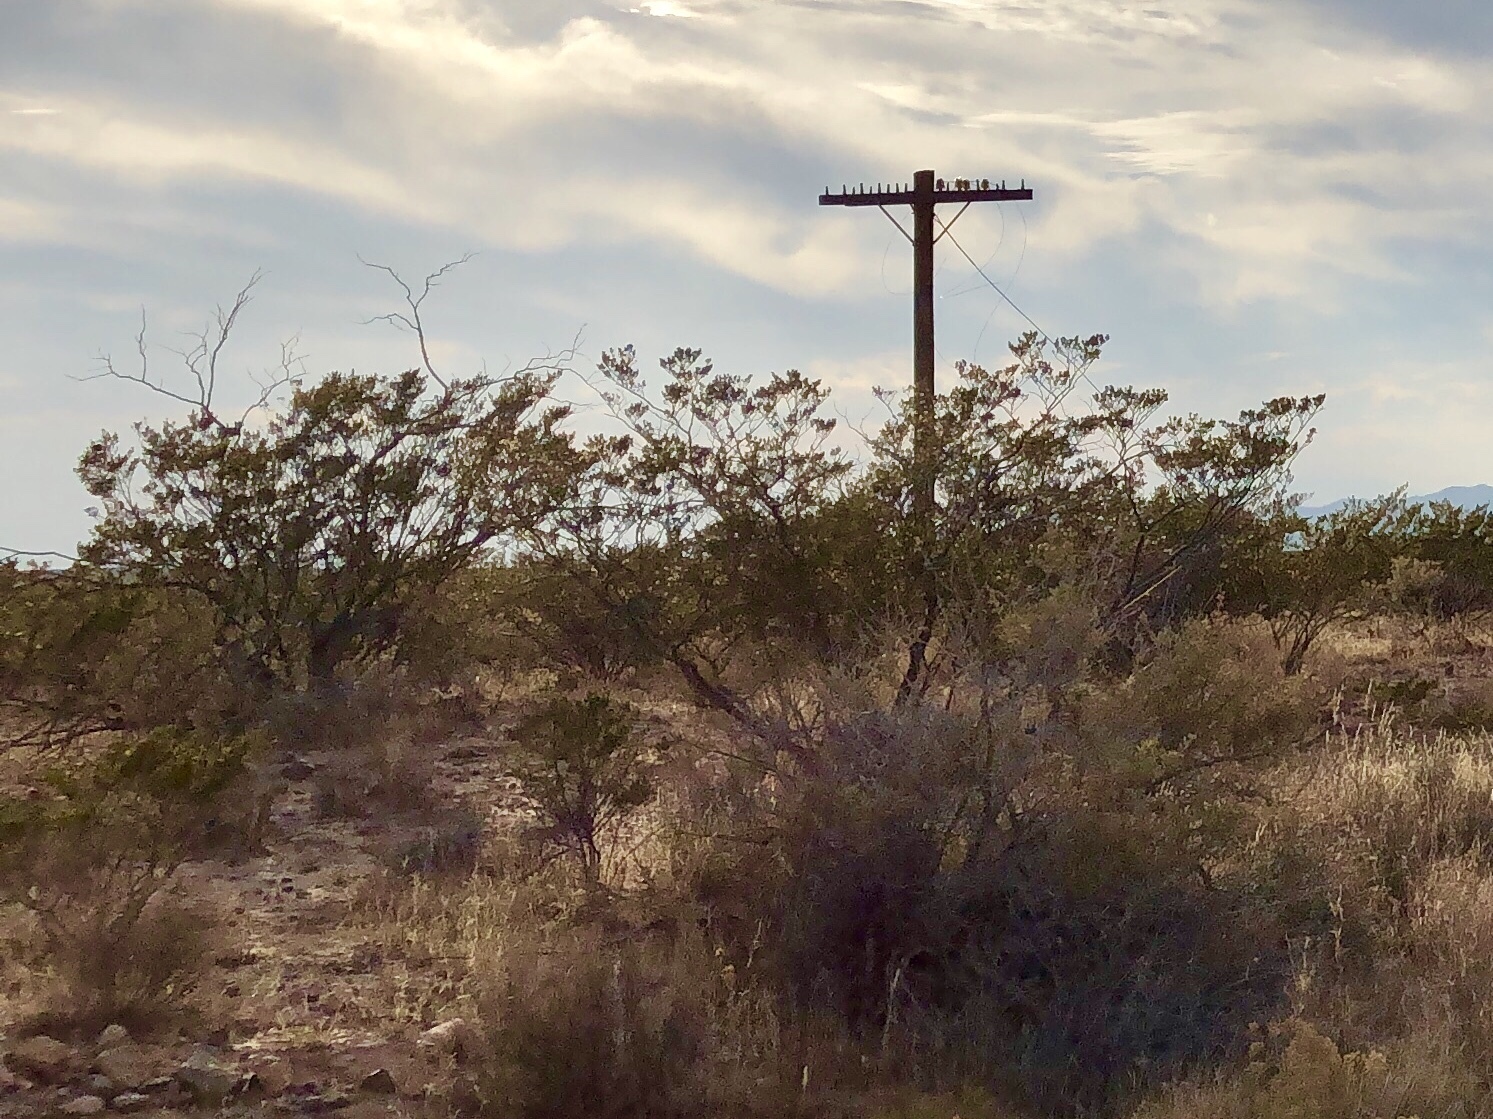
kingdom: Plantae
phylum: Tracheophyta
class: Magnoliopsida
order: Zygophyllales
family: Zygophyllaceae
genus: Larrea
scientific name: Larrea tridentata
